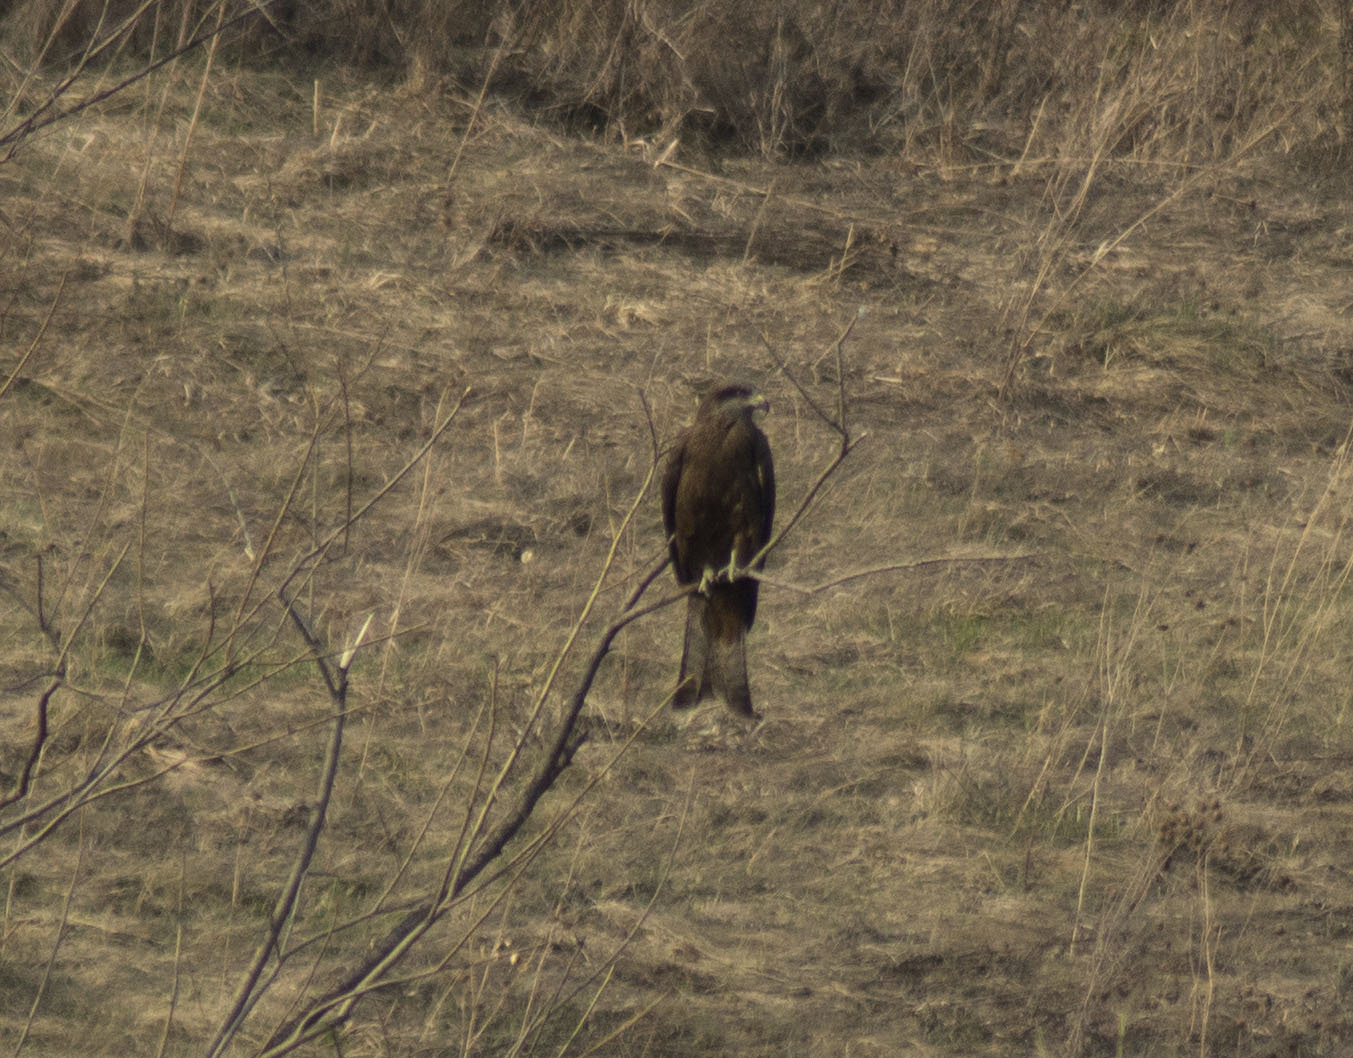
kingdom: Animalia
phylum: Chordata
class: Aves
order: Accipitriformes
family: Accipitridae
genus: Milvus
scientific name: Milvus migrans
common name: Black kite
